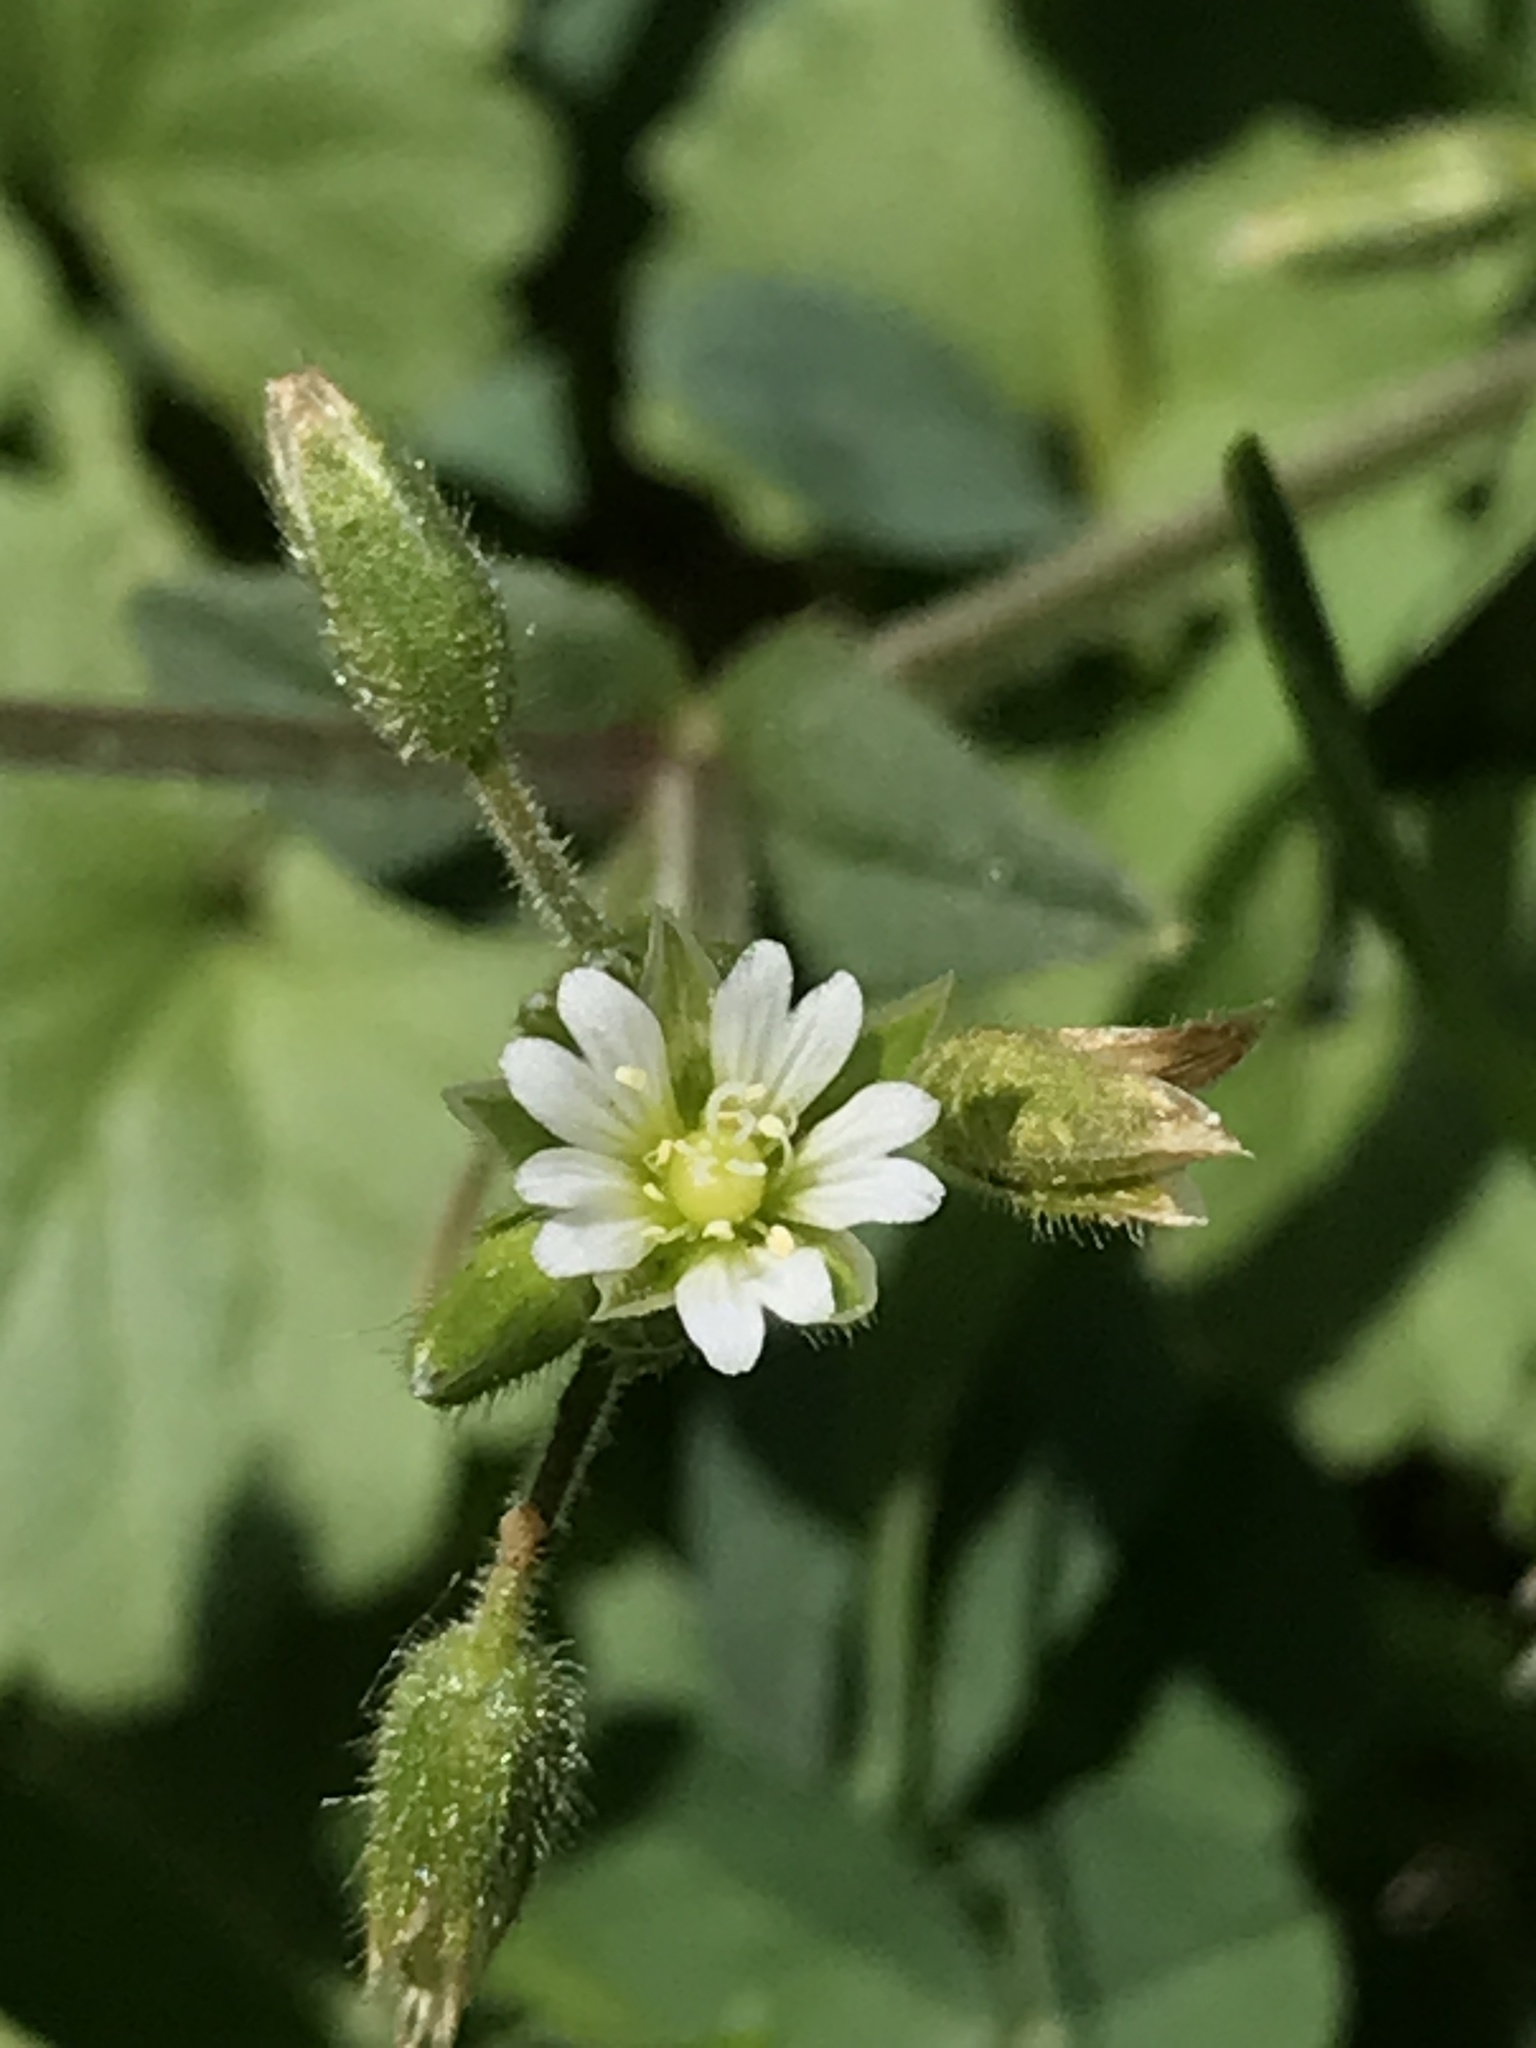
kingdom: Plantae
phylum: Tracheophyta
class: Magnoliopsida
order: Caryophyllales
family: Caryophyllaceae
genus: Cerastium
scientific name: Cerastium fontanum
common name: Common mouse-ear
